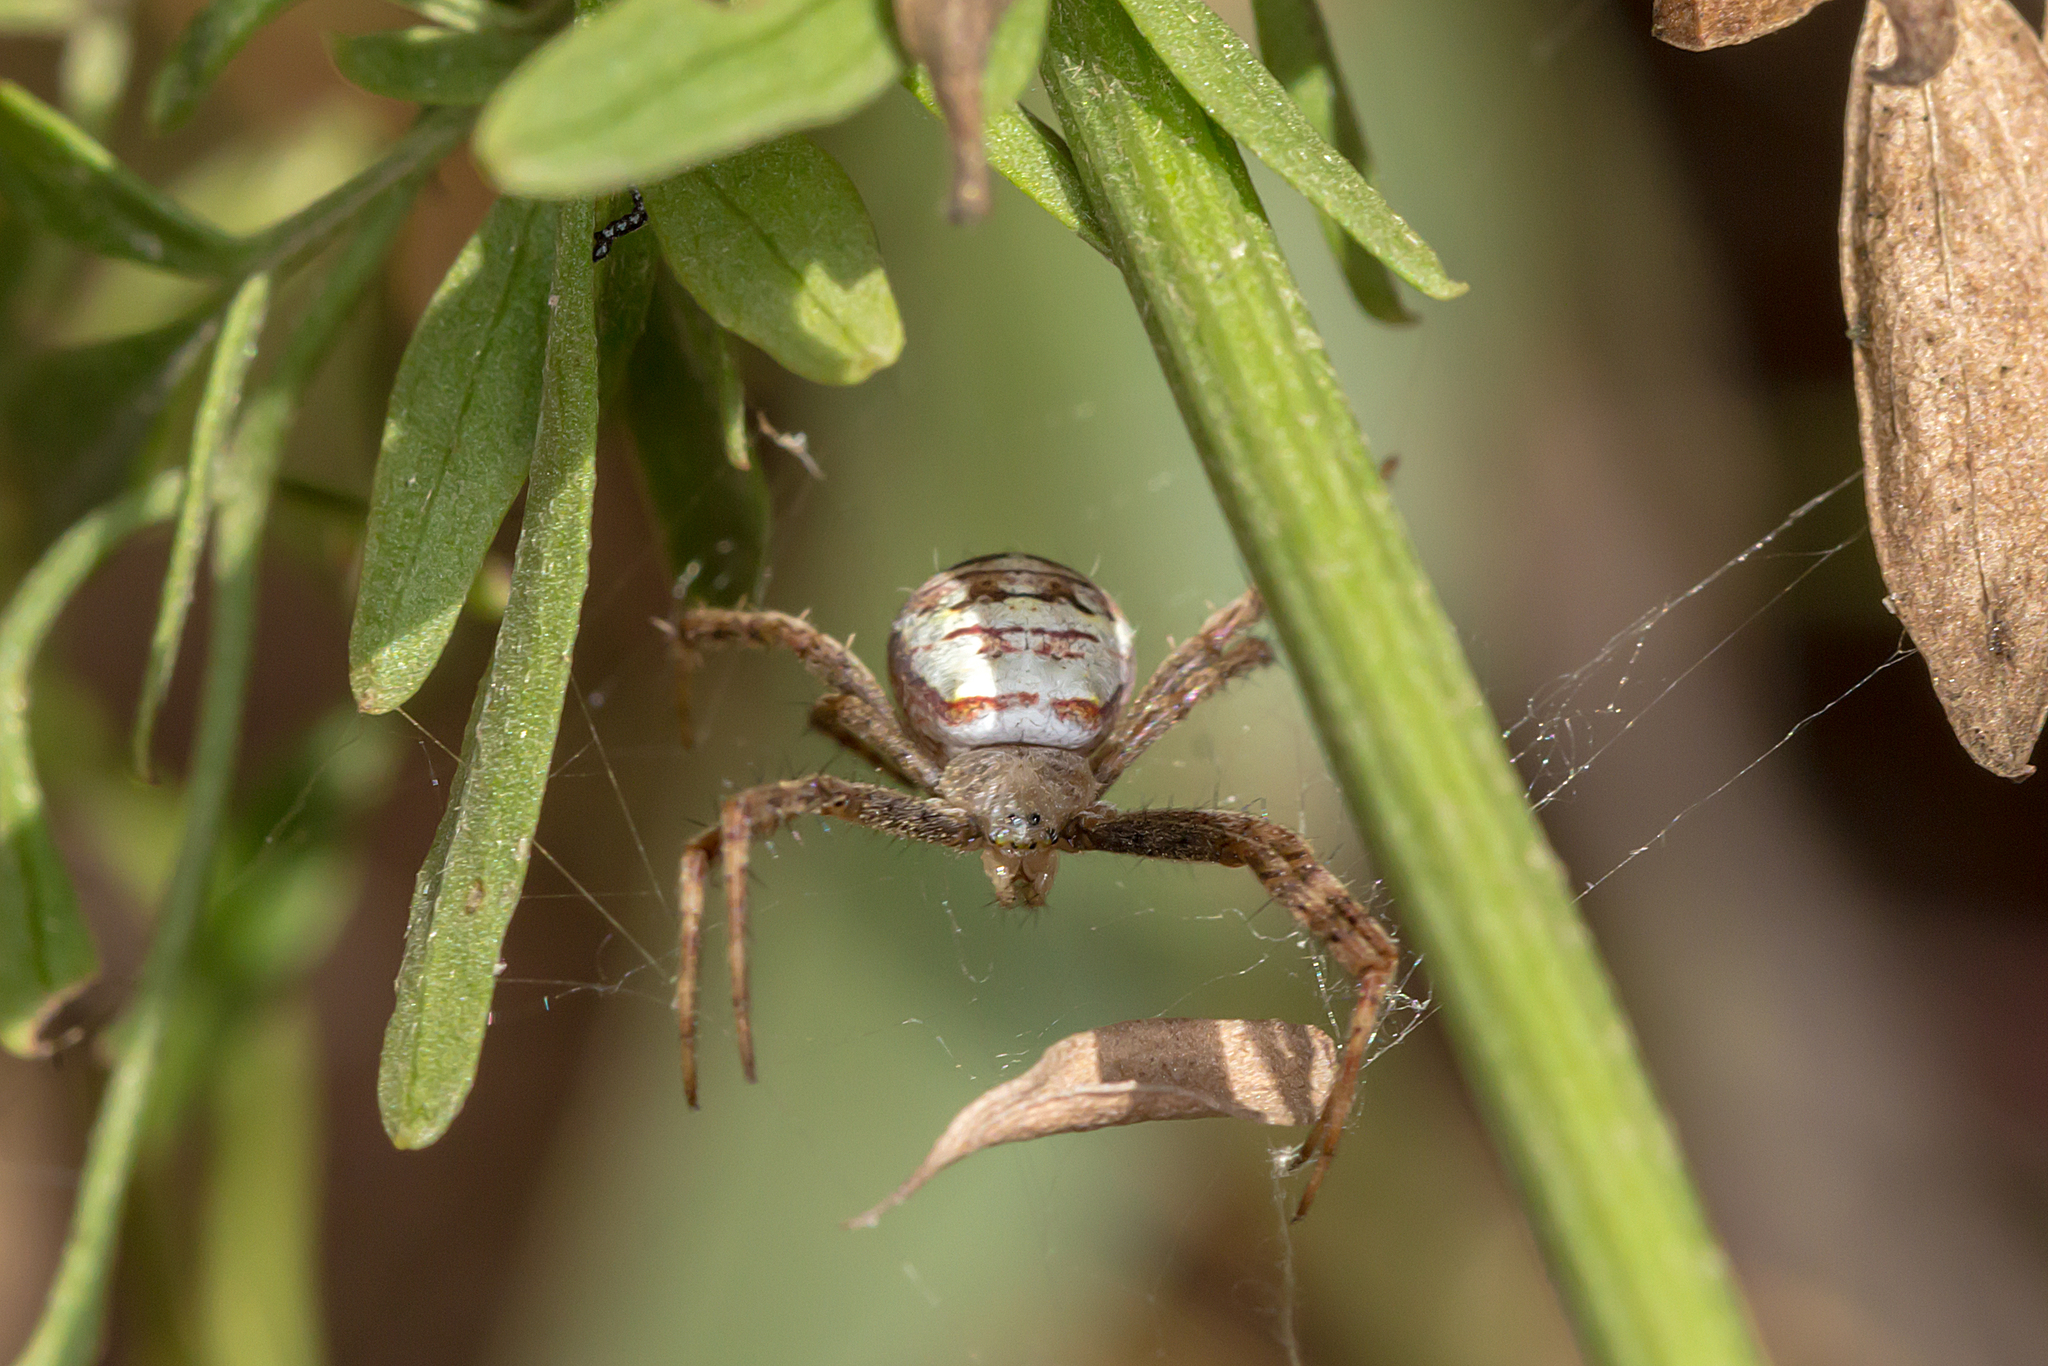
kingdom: Animalia
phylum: Arthropoda
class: Arachnida
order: Araneae
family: Araneidae
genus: Argiope
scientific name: Argiope keyserlingi
